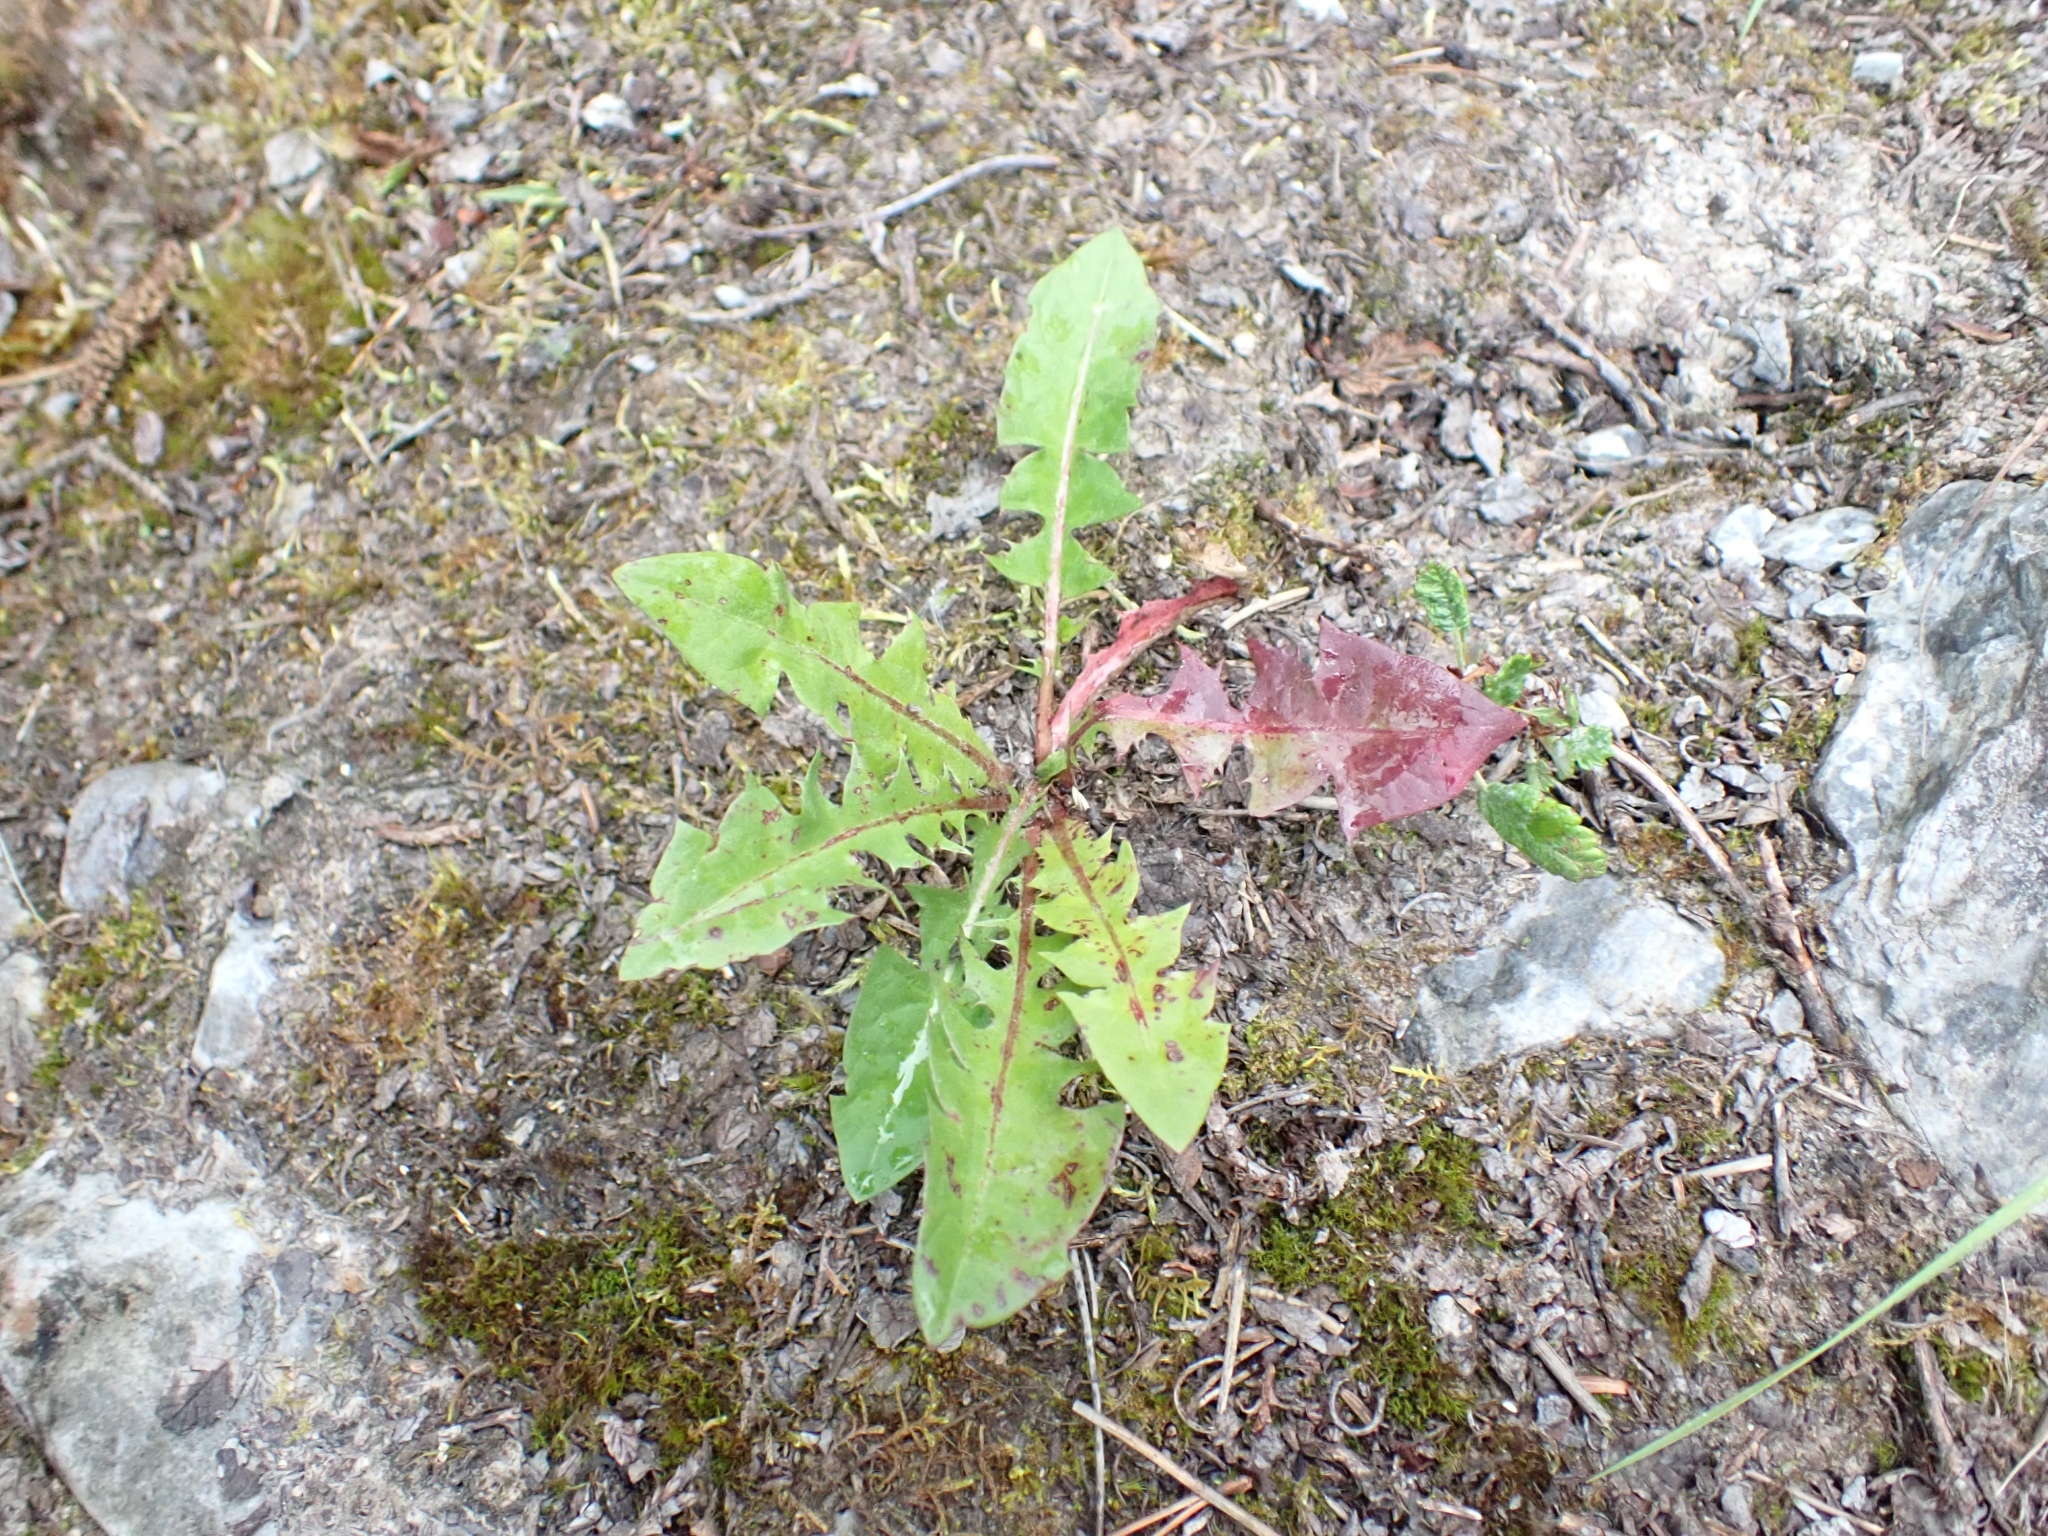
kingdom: Plantae
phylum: Tracheophyta
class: Magnoliopsida
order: Asterales
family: Asteraceae
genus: Taraxacum
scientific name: Taraxacum officinale
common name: Common dandelion
